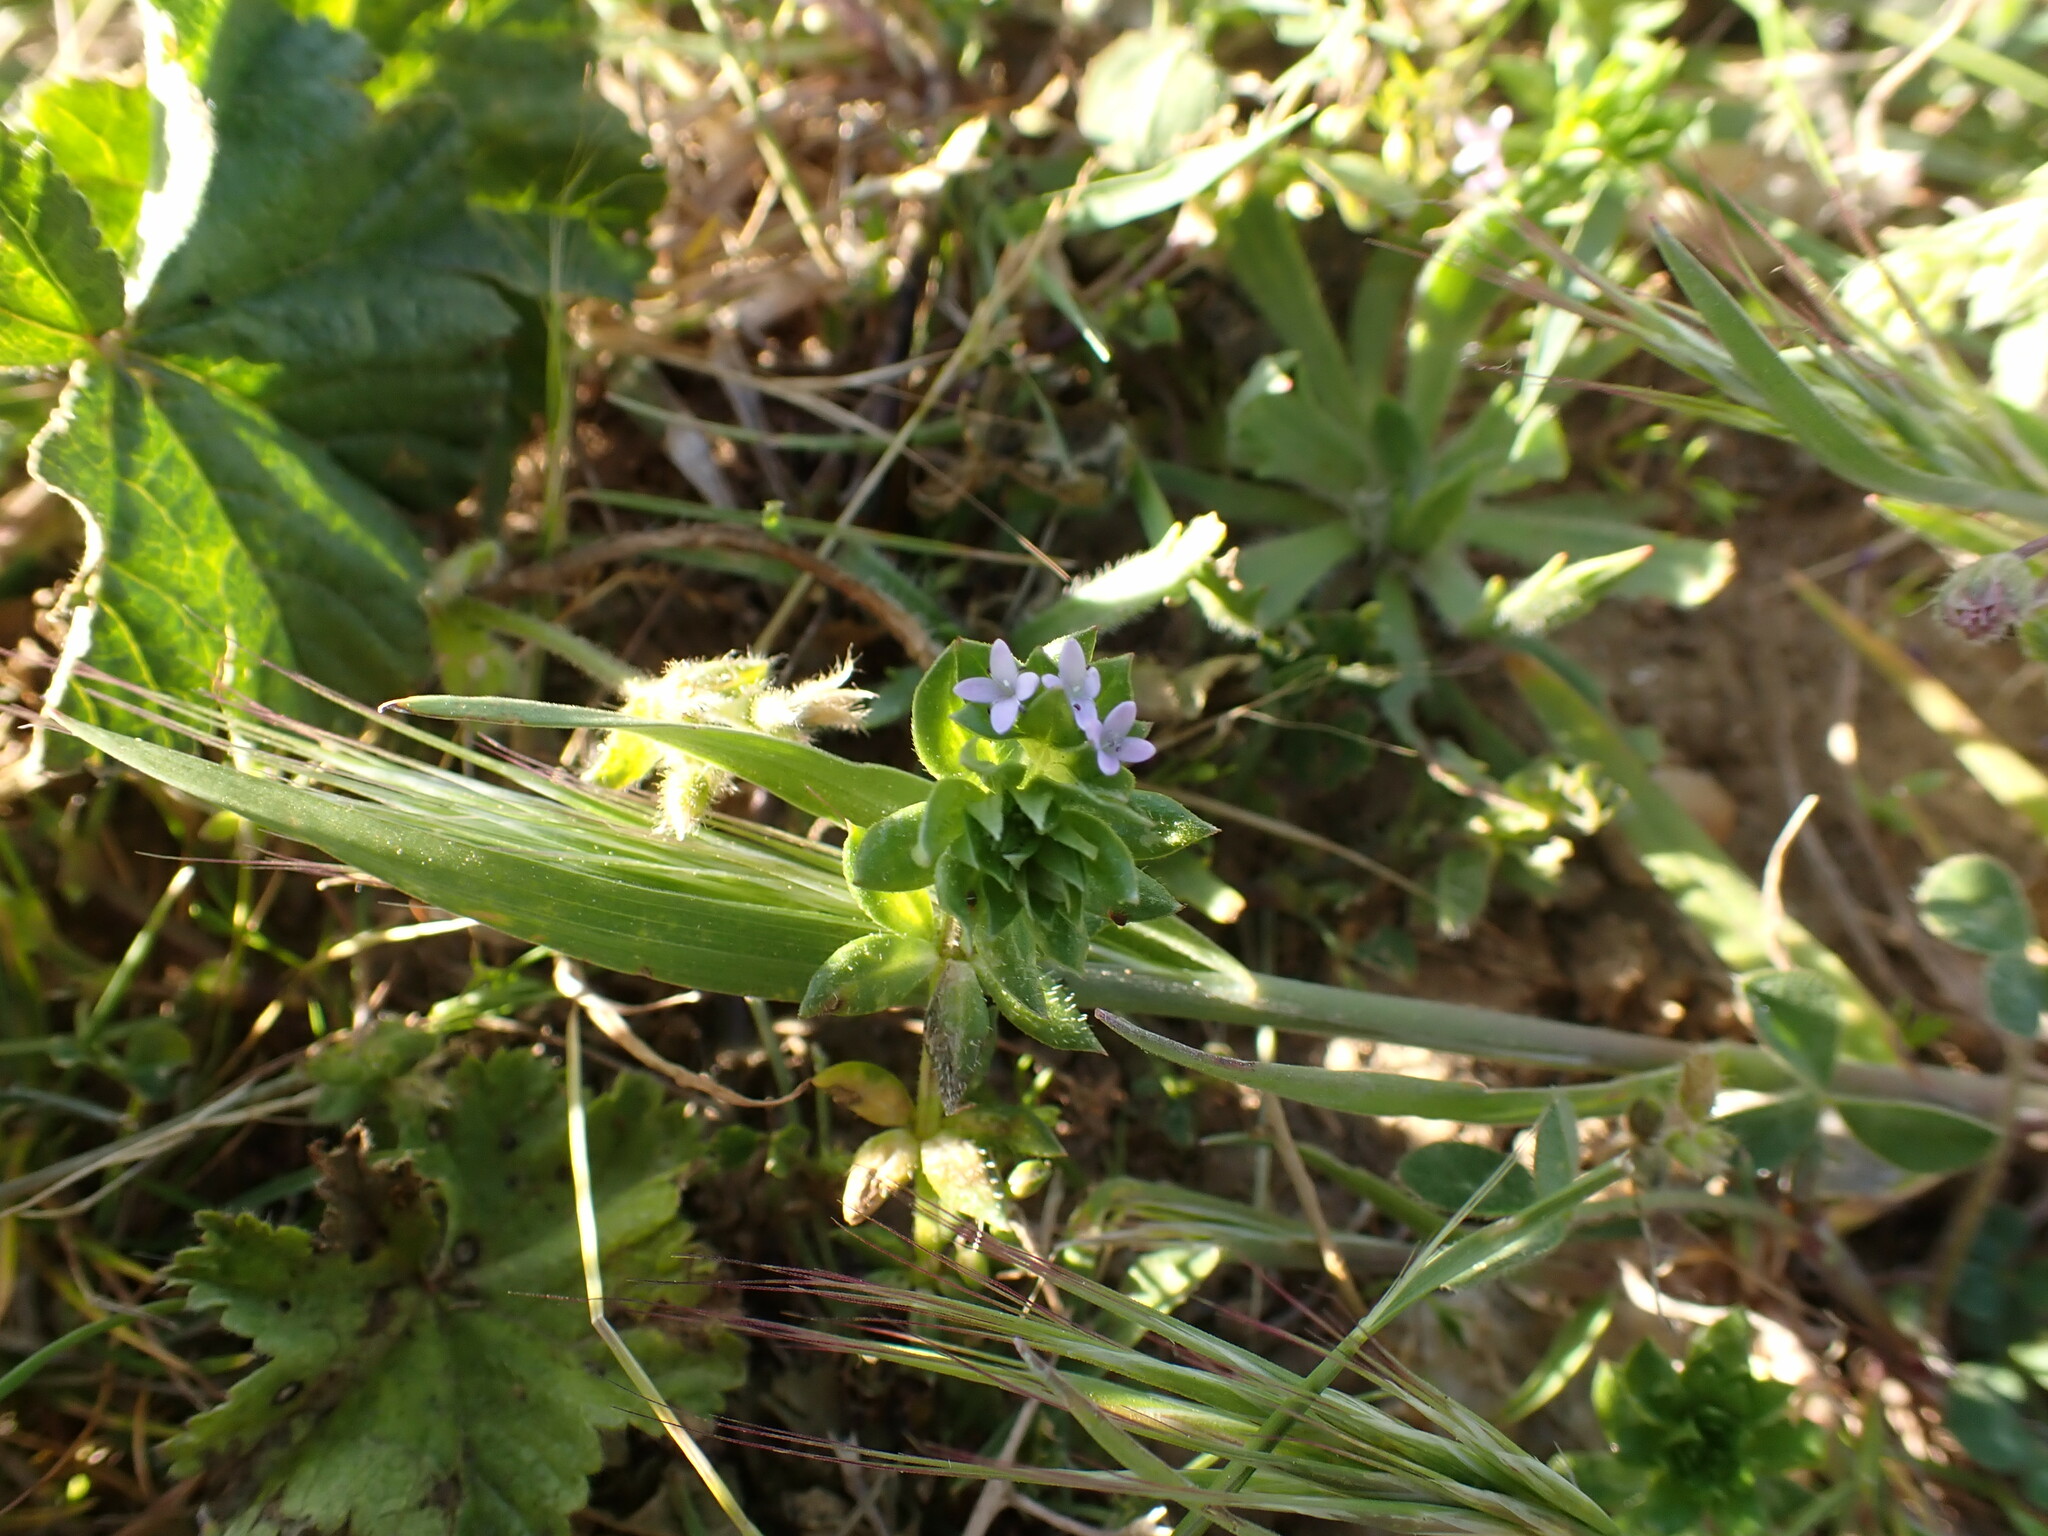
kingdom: Plantae
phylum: Tracheophyta
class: Magnoliopsida
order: Gentianales
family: Rubiaceae
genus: Sherardia
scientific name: Sherardia arvensis
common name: Field madder
